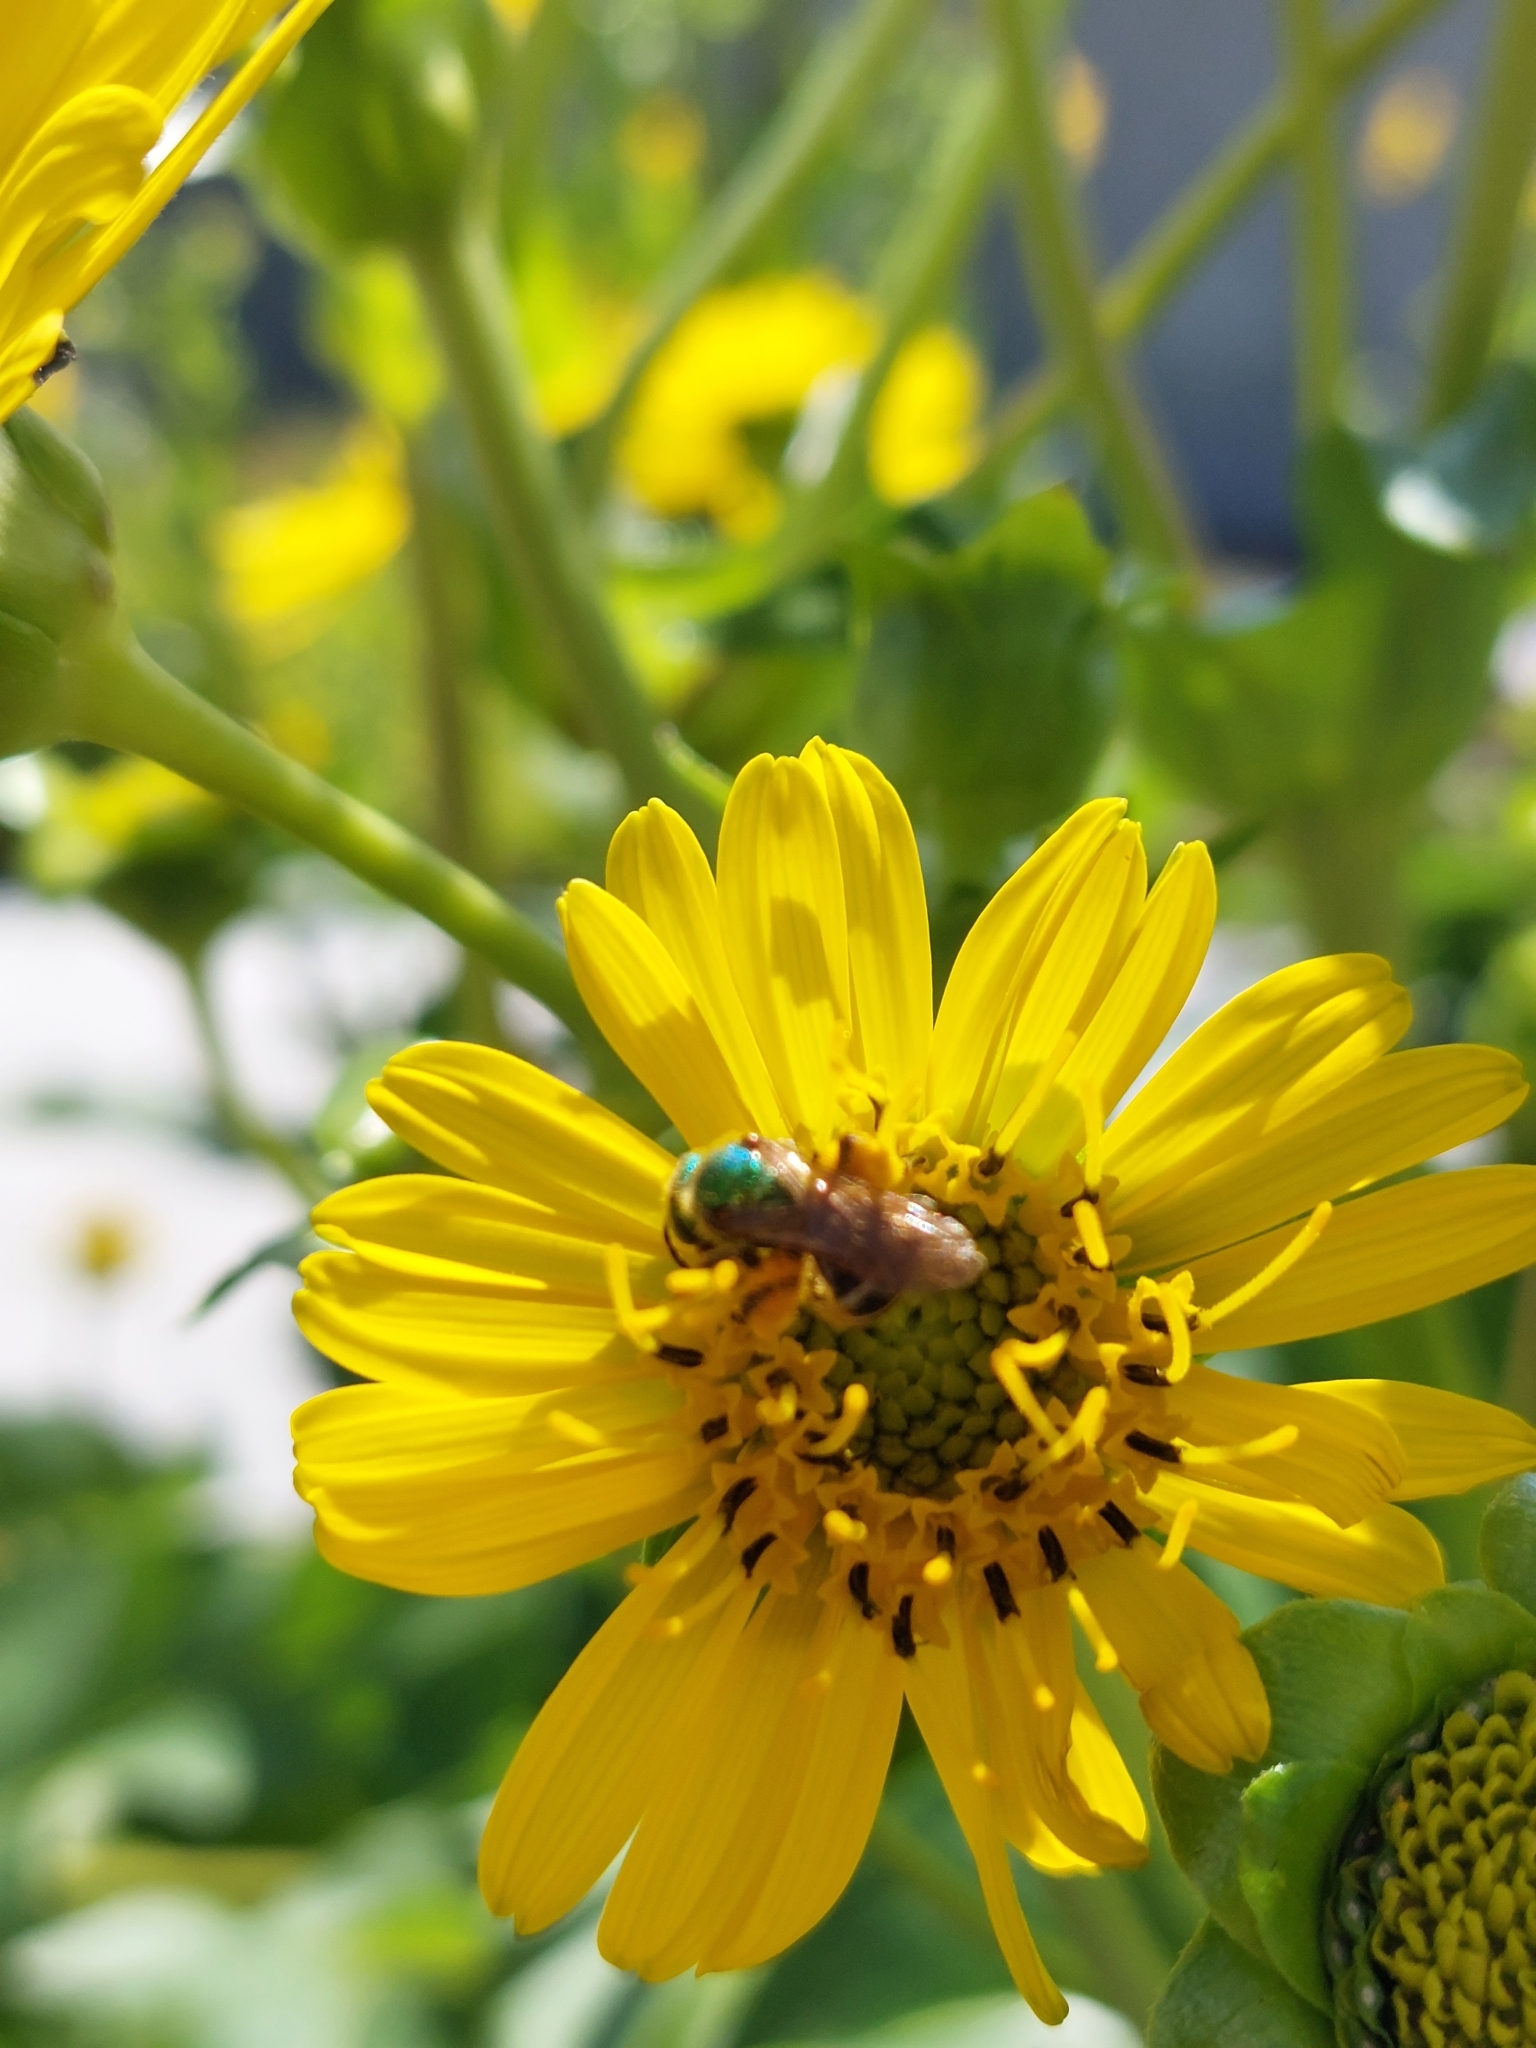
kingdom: Animalia
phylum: Arthropoda
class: Insecta
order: Hymenoptera
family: Halictidae
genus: Agapostemon
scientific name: Agapostemon virescens
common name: Bicolored striped sweat bee
